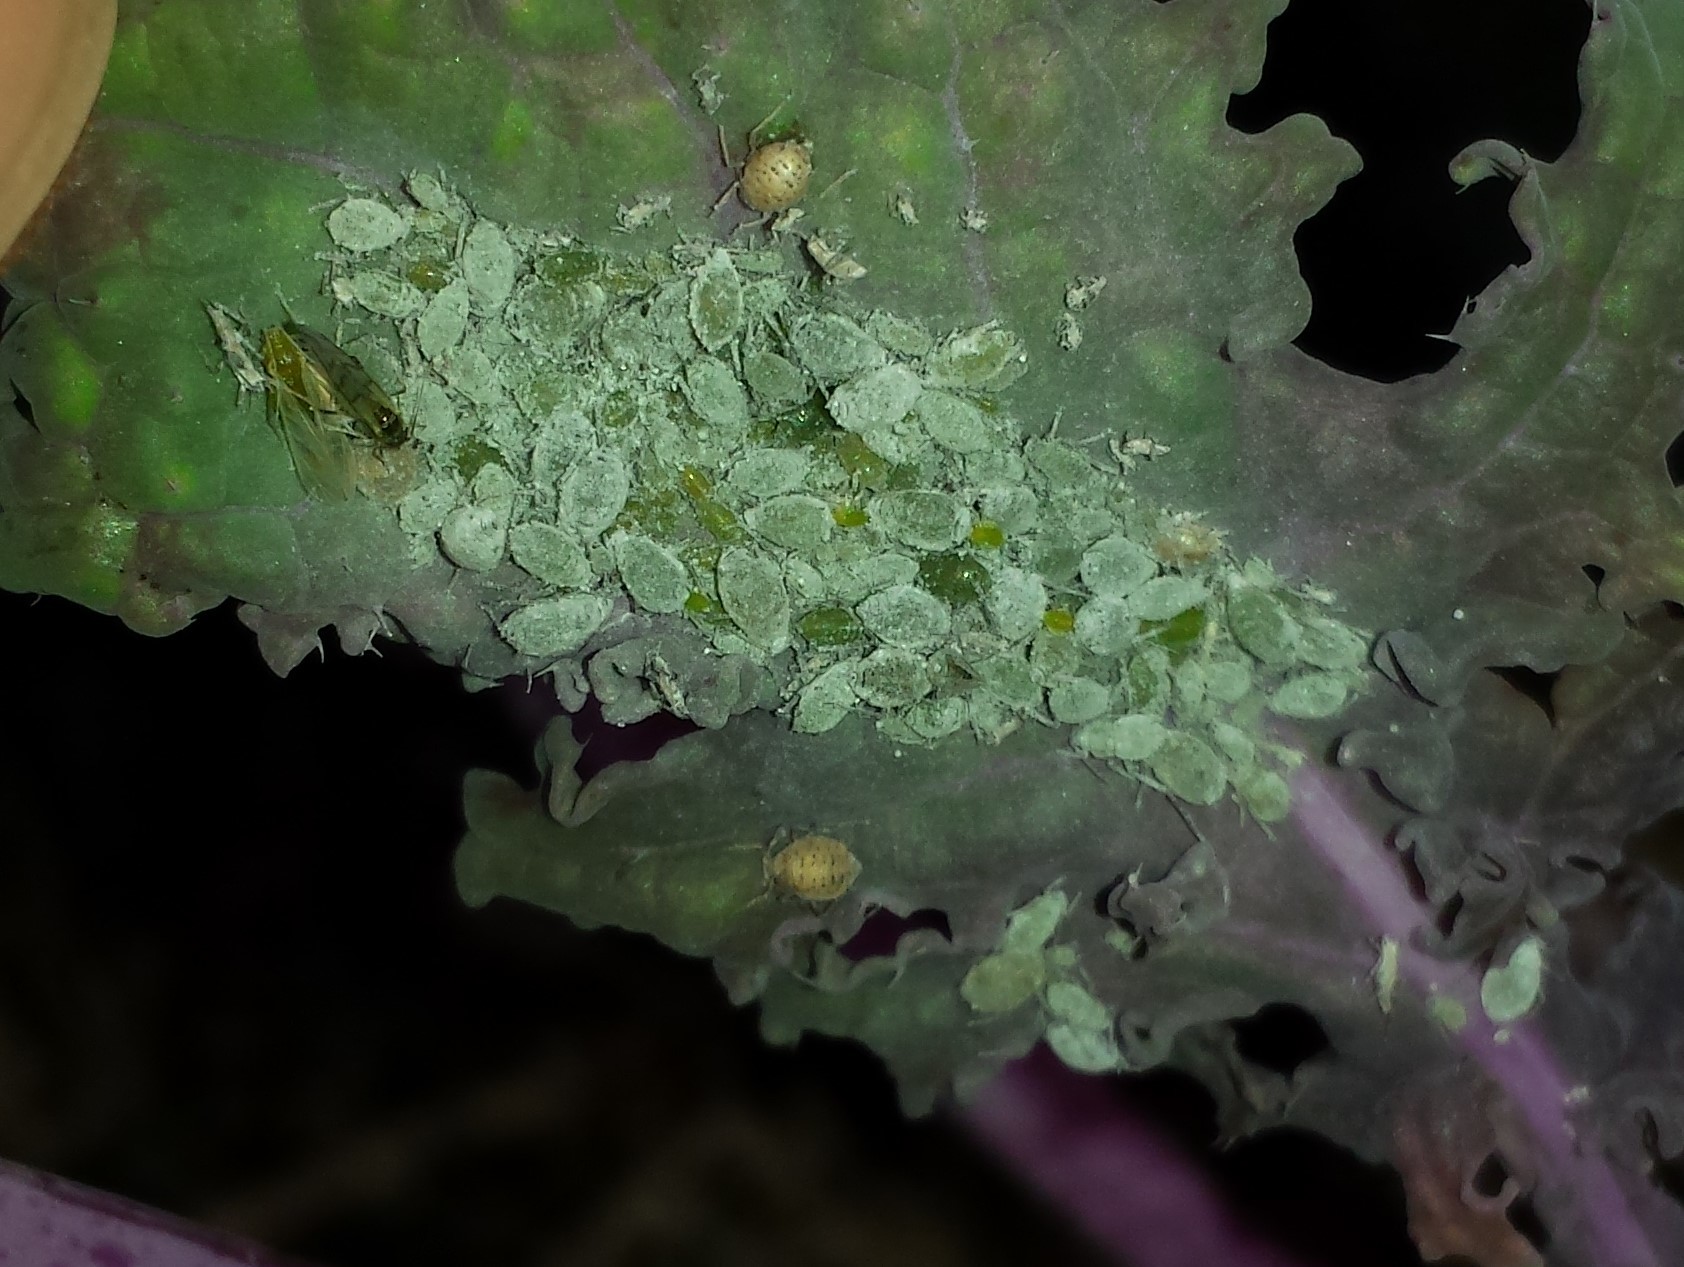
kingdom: Animalia
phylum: Arthropoda
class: Insecta
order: Hemiptera
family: Aphididae
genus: Brevicoryne
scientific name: Brevicoryne brassicae
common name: Cabbage aphid
